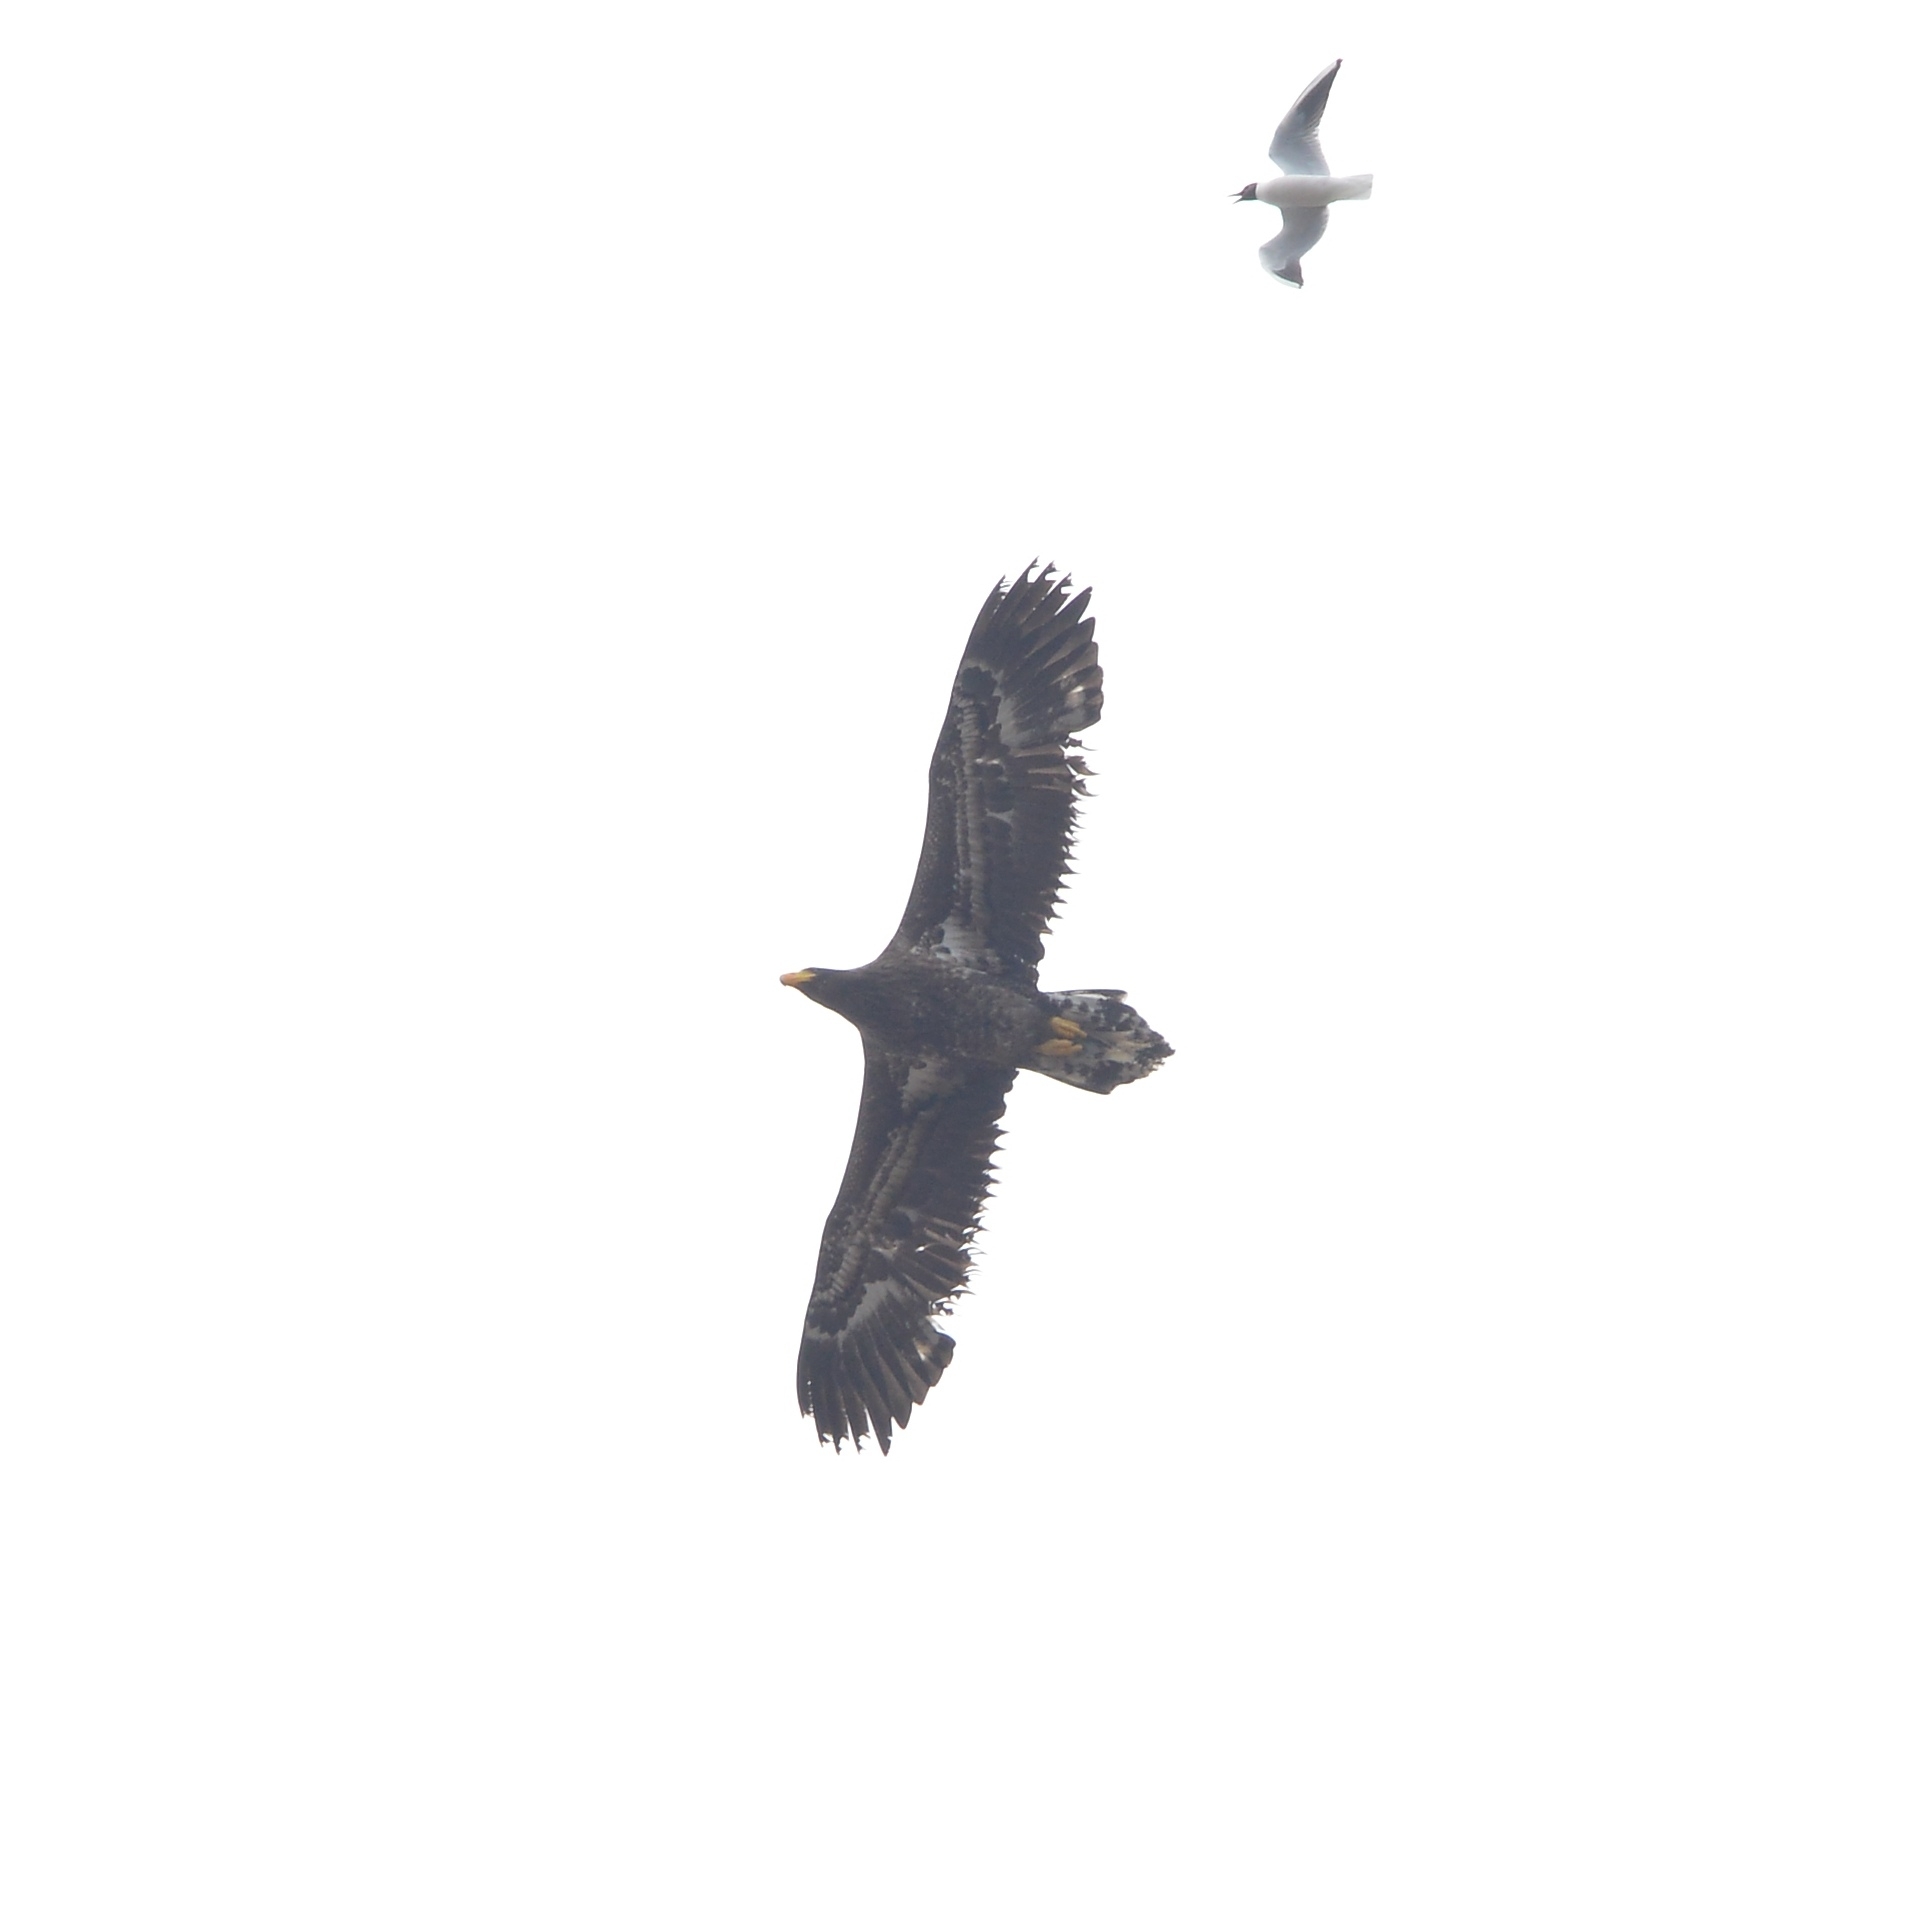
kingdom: Animalia
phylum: Chordata
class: Aves
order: Accipitriformes
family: Accipitridae
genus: Haliaeetus
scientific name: Haliaeetus pelagicus
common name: Steller's sea eagle
